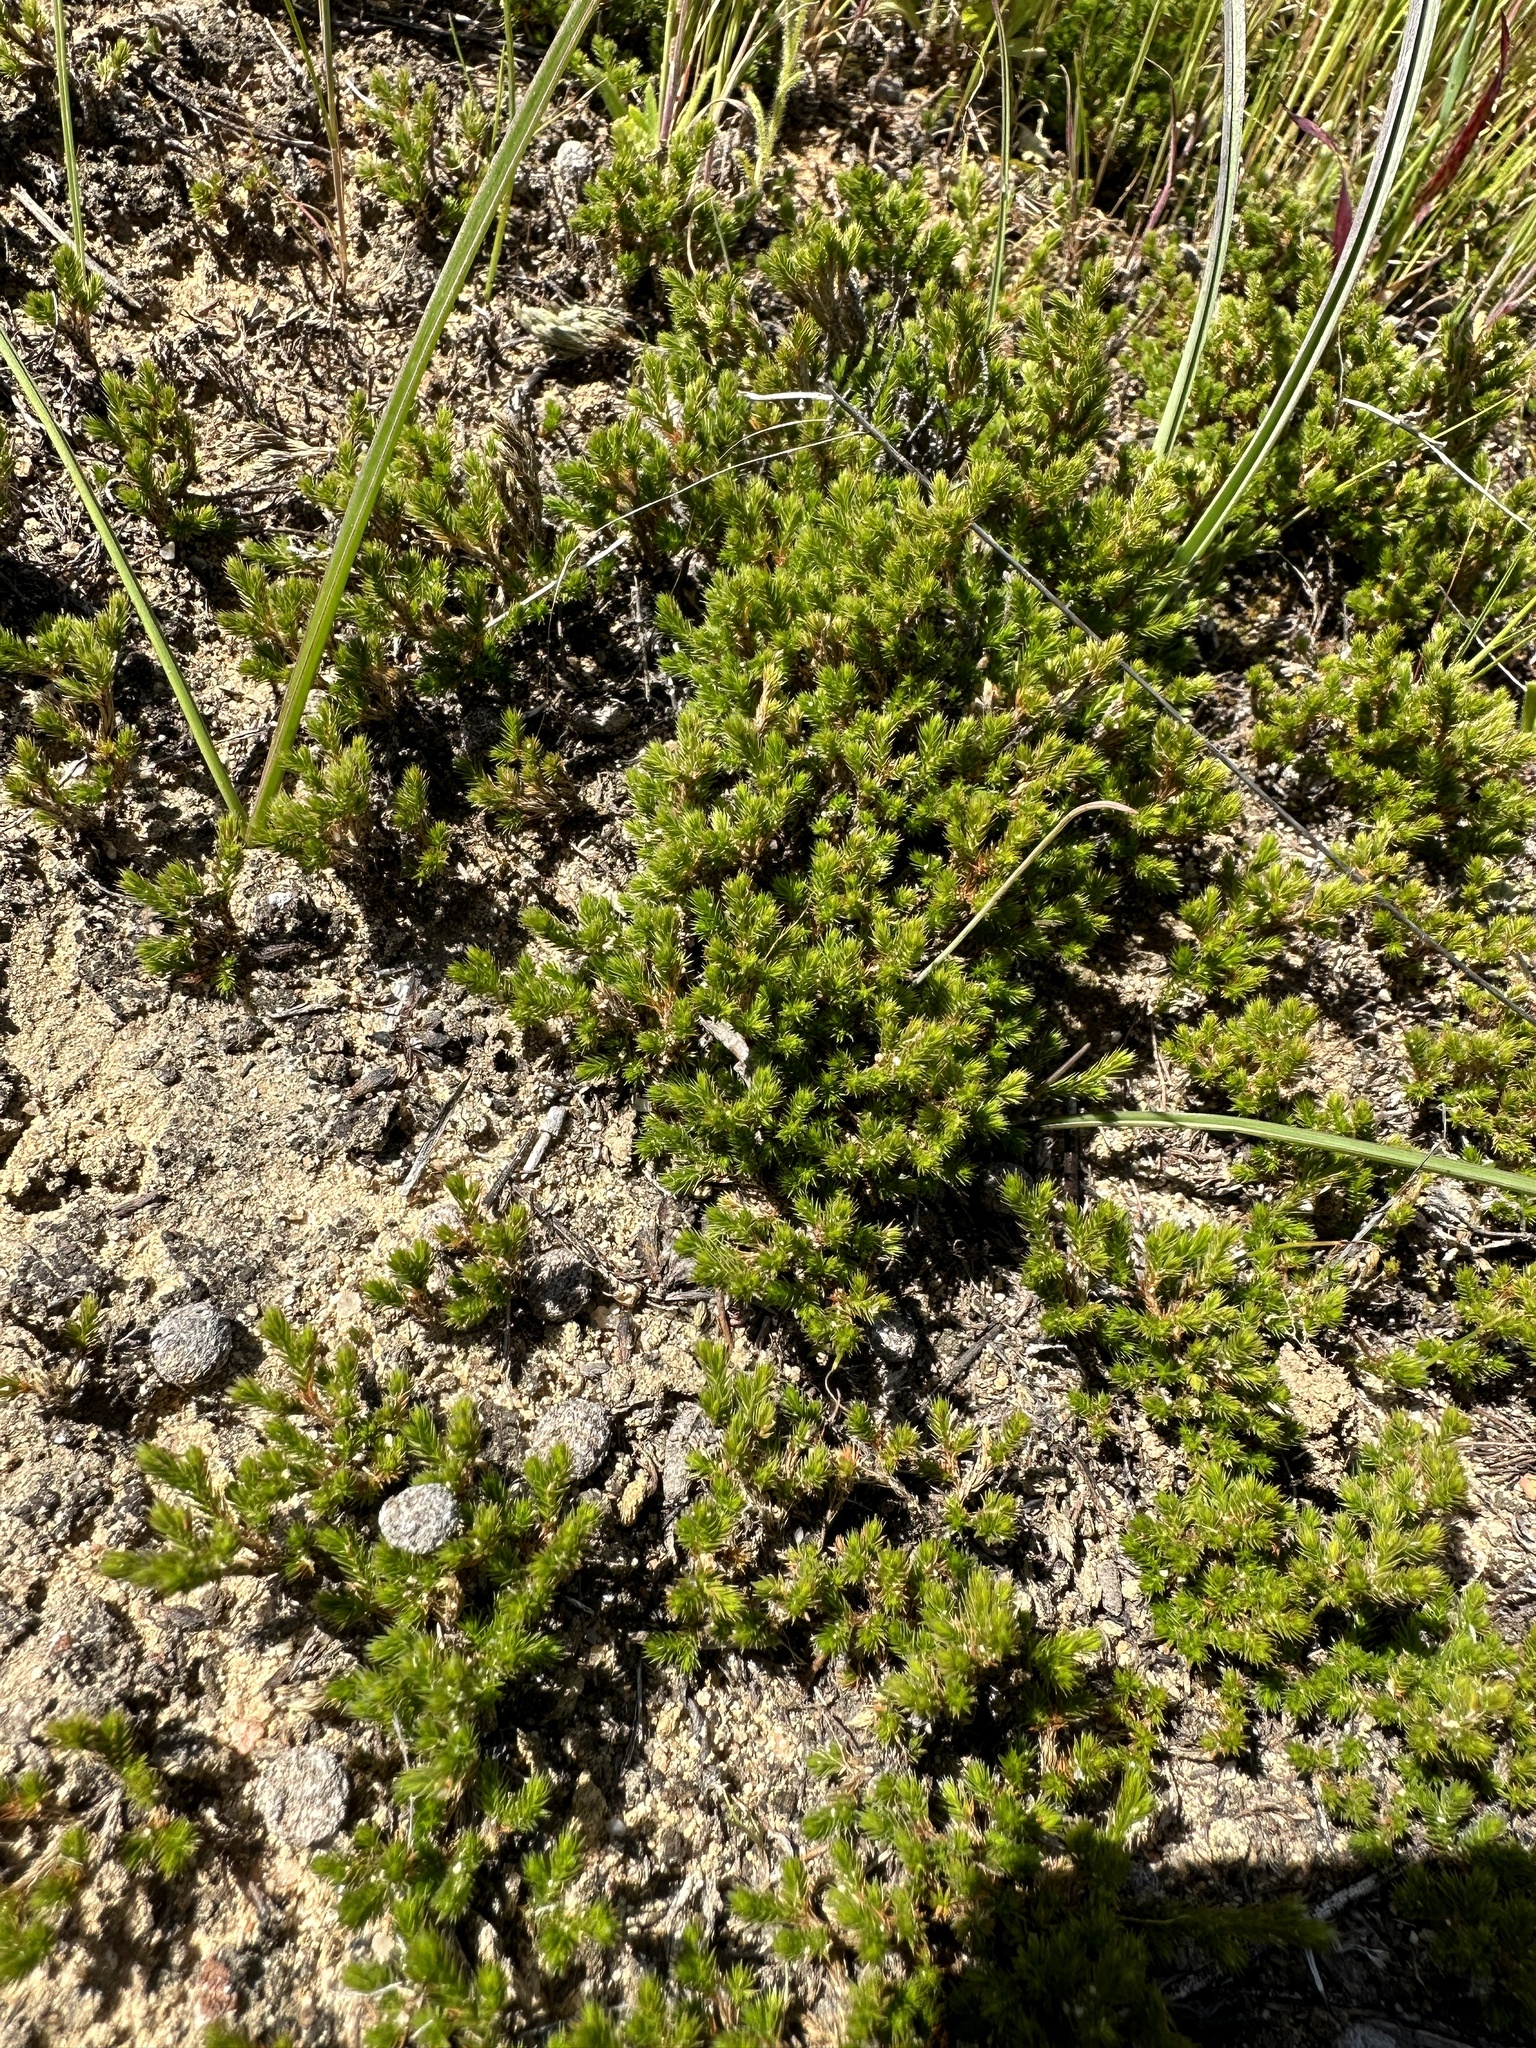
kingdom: Plantae
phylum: Tracheophyta
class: Lycopodiopsida
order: Selaginellales
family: Selaginellaceae
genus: Selaginella
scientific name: Selaginella bigelovii
